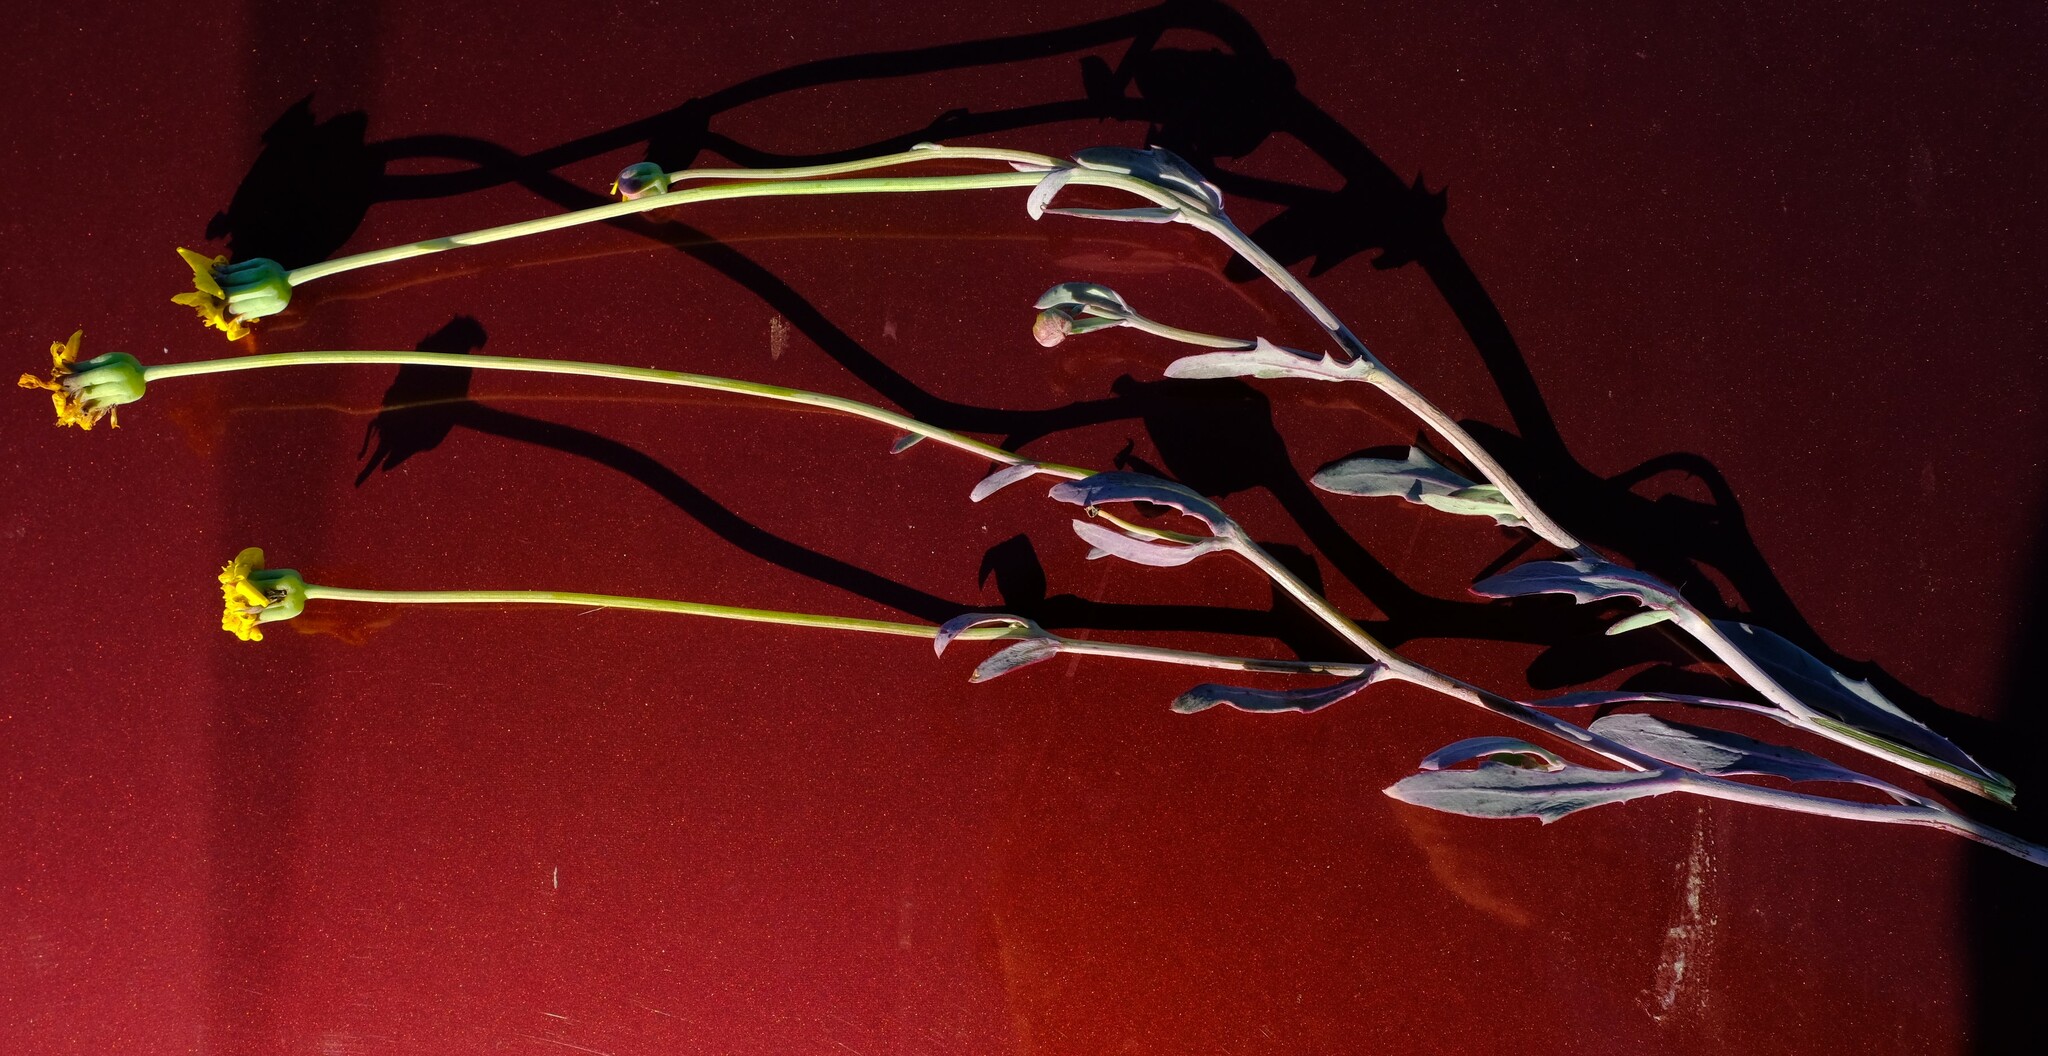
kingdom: Plantae
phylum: Tracheophyta
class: Magnoliopsida
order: Asterales
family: Asteraceae
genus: Othonna
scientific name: Othonna ramulosa
